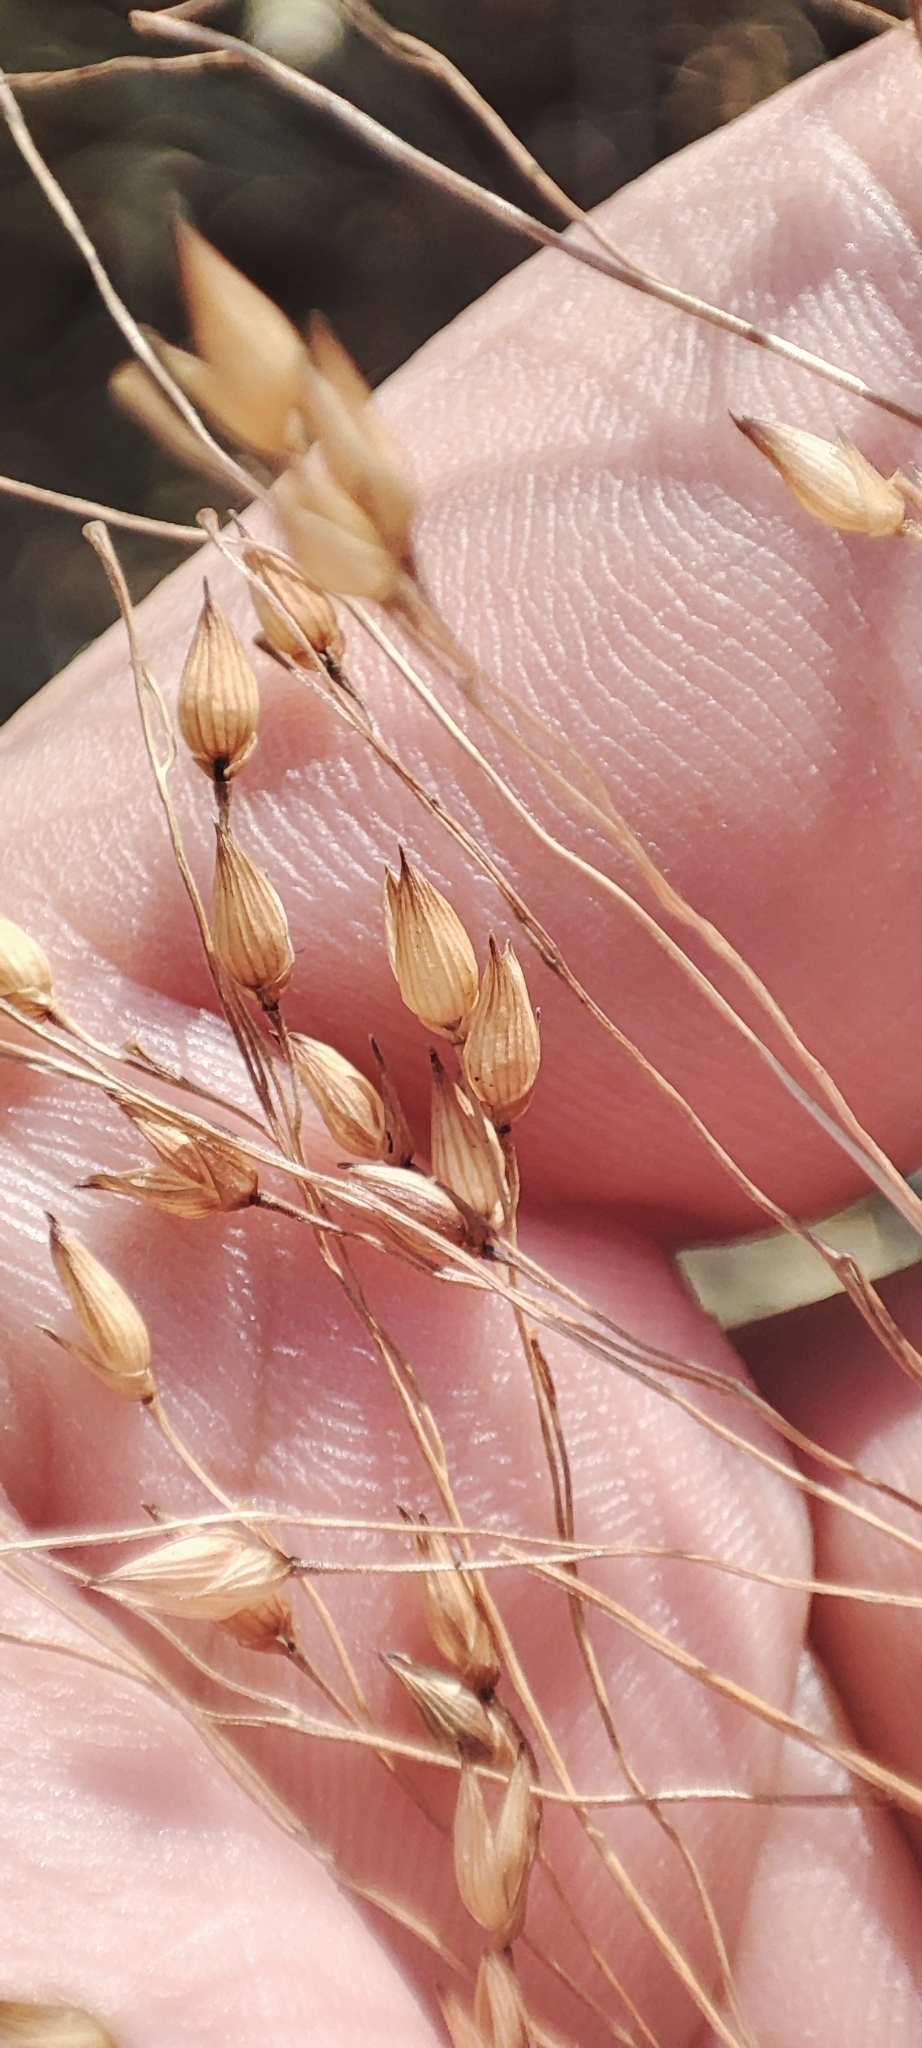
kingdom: Plantae
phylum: Tracheophyta
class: Liliopsida
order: Poales
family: Poaceae
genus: Panicum
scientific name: Panicum miliaceum
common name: Common millet
